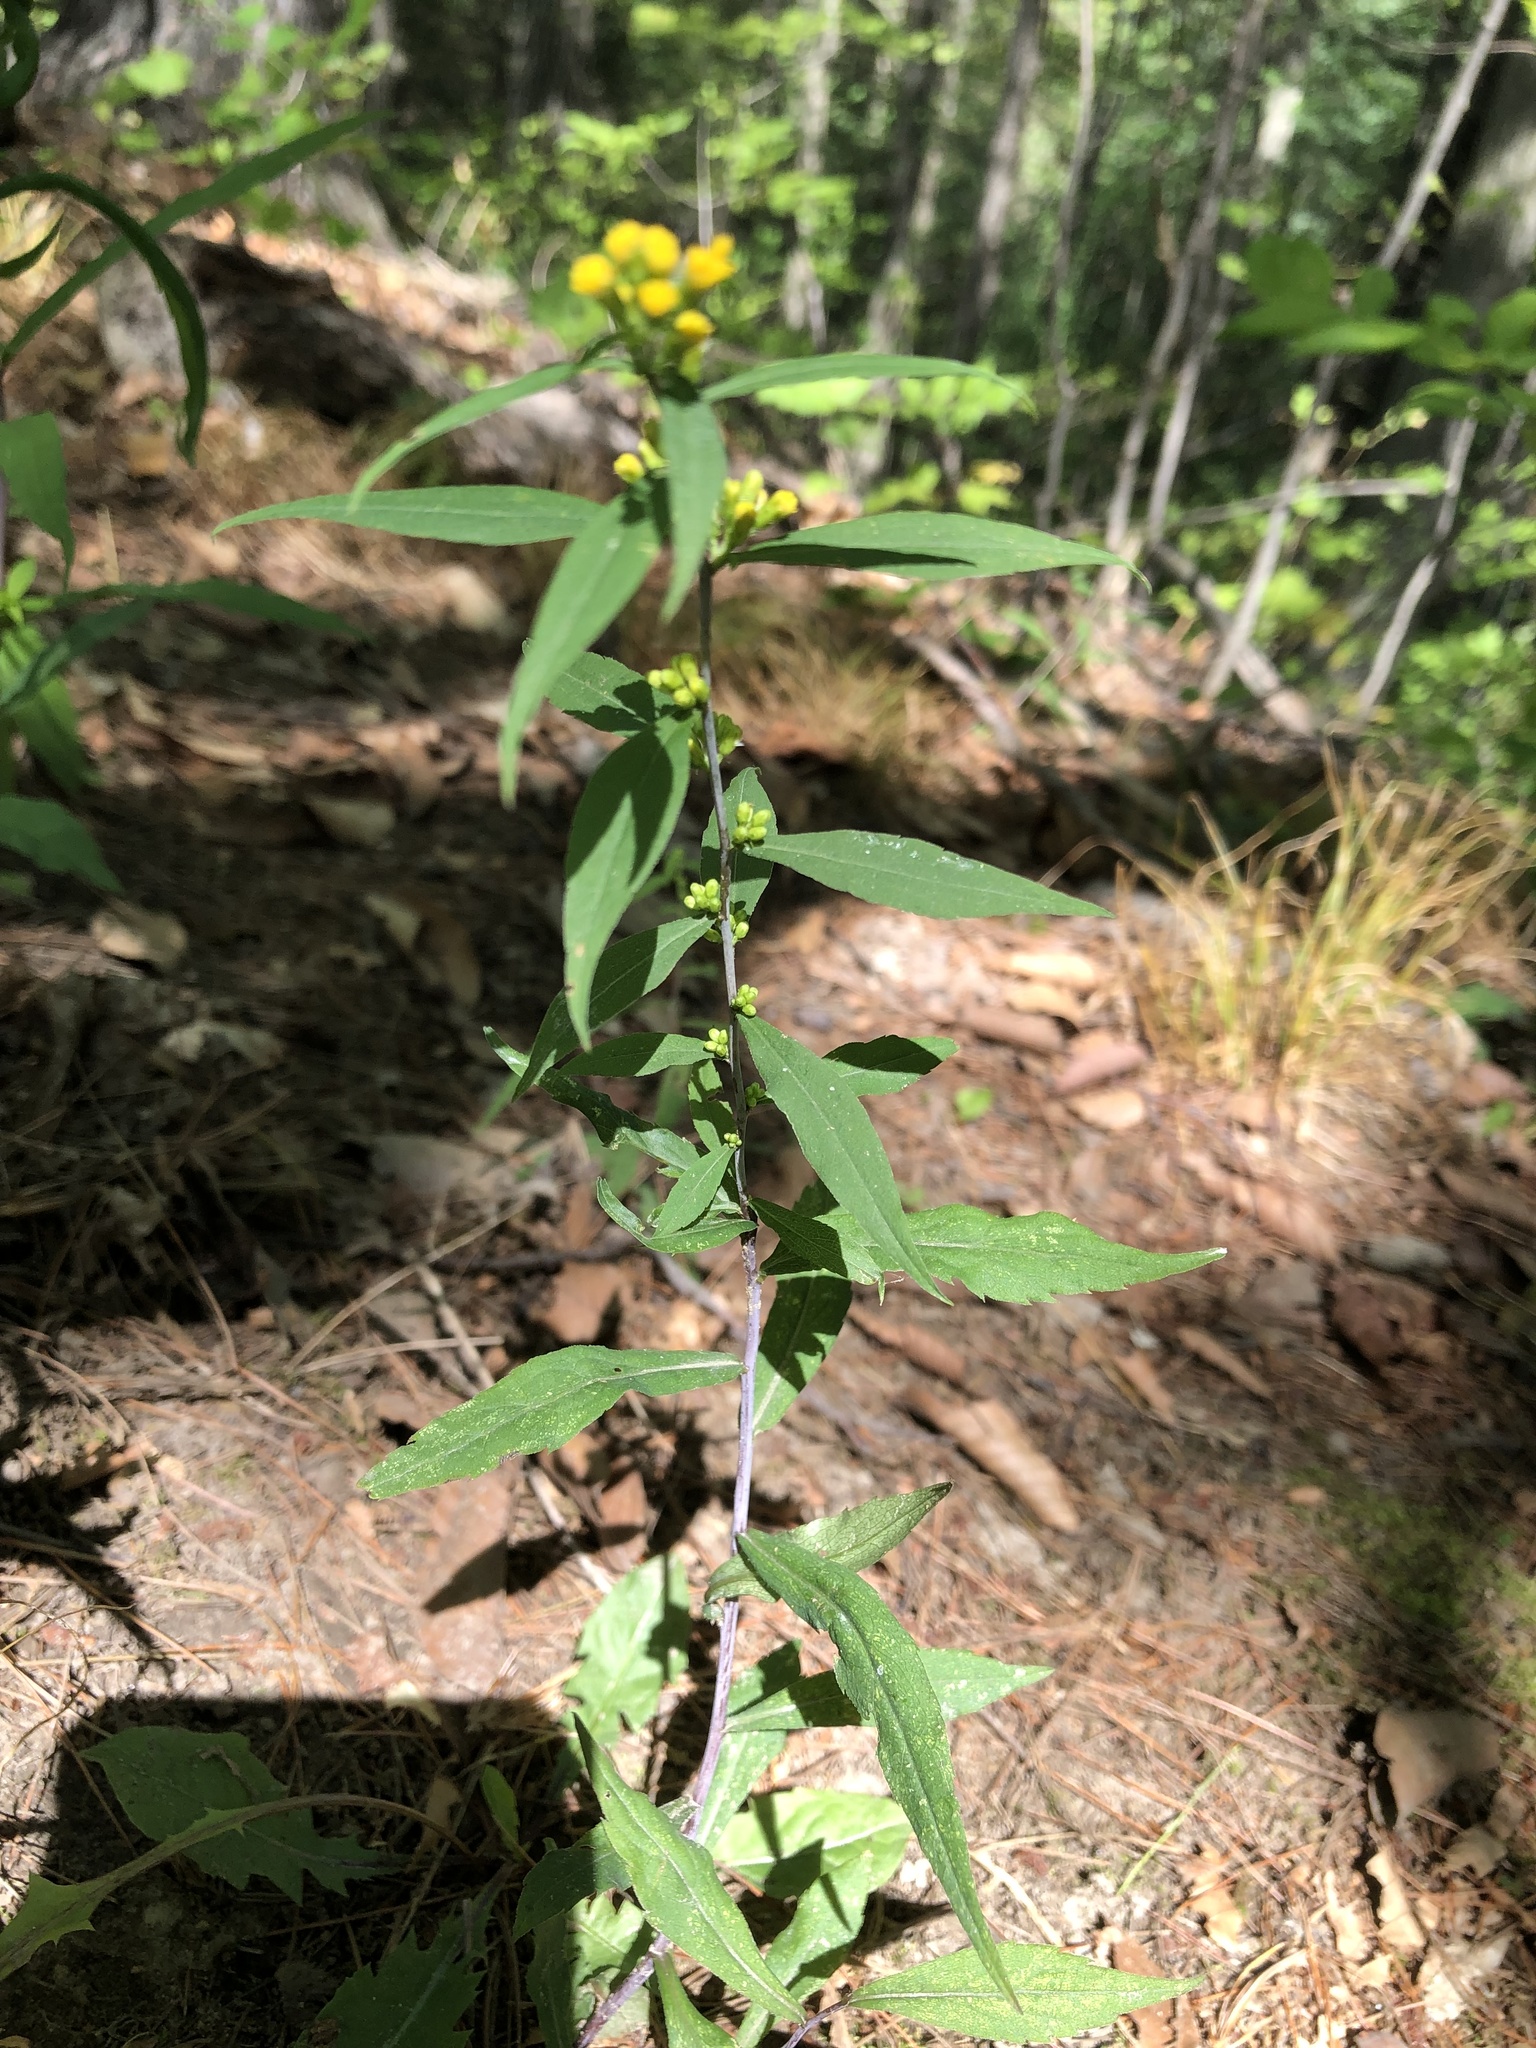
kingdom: Plantae
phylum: Tracheophyta
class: Magnoliopsida
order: Asterales
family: Asteraceae
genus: Solidago
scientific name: Solidago caesia
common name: Woodland goldenrod
